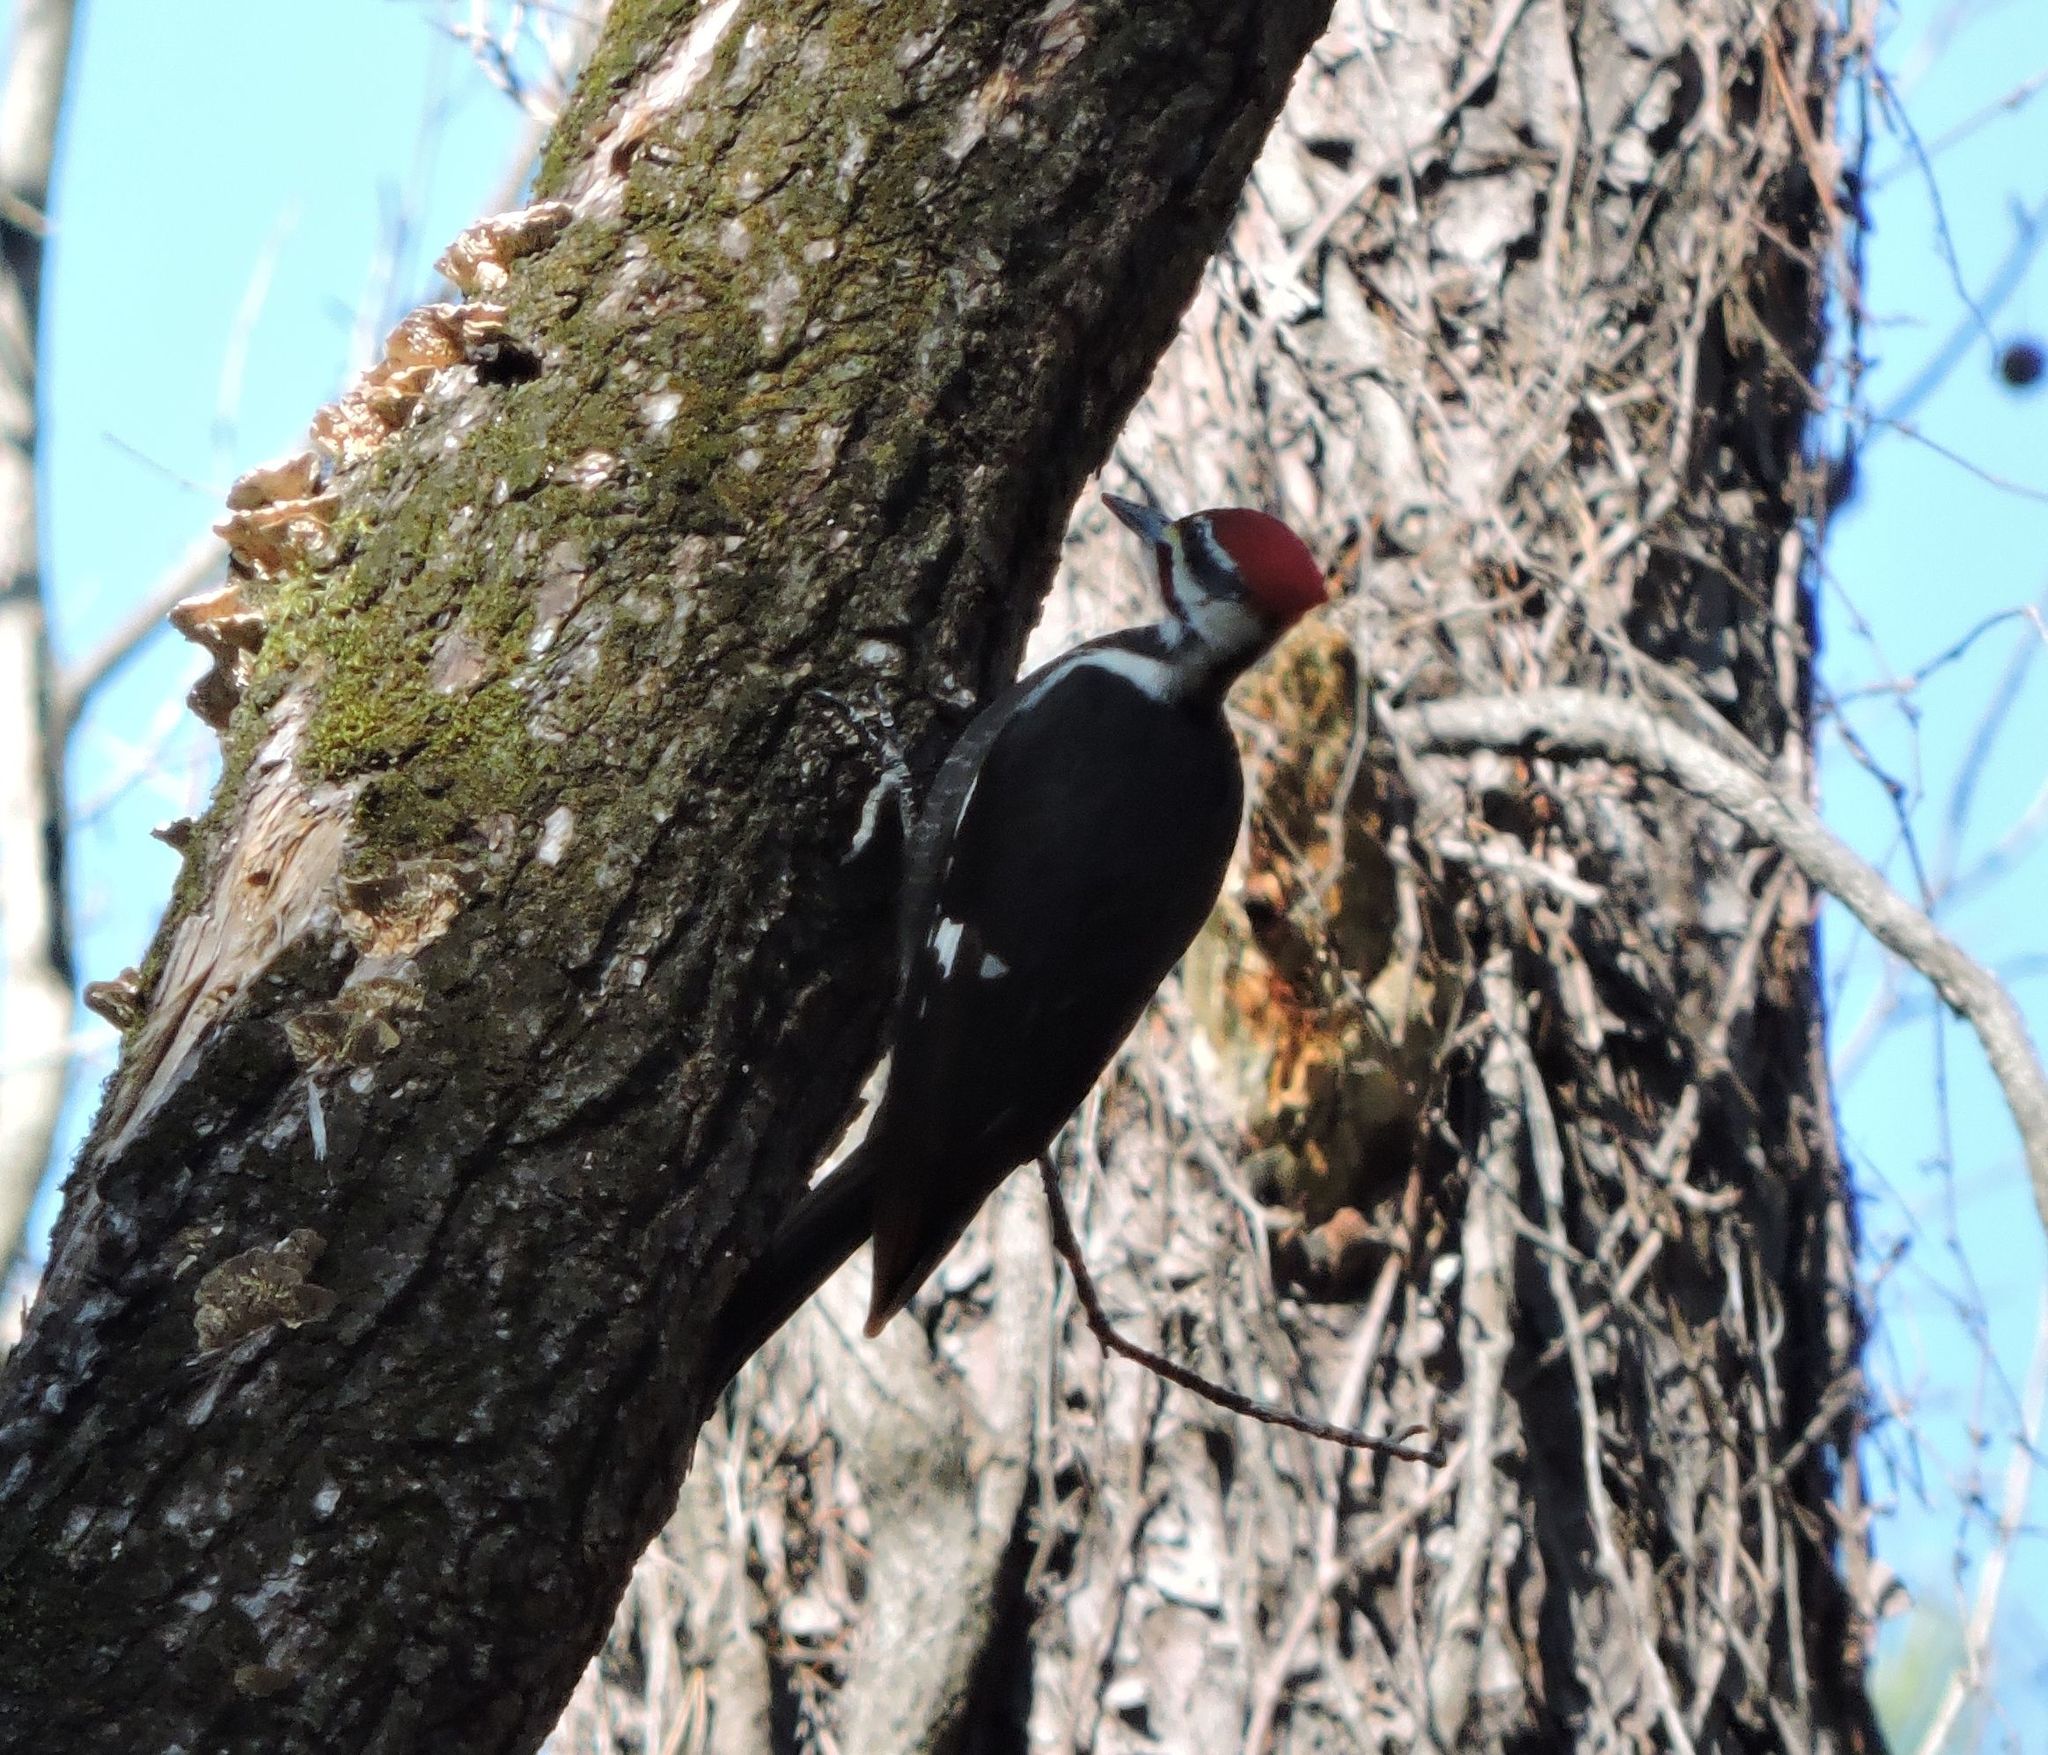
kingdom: Animalia
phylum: Chordata
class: Aves
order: Piciformes
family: Picidae
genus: Dryocopus
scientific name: Dryocopus pileatus
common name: Pileated woodpecker
